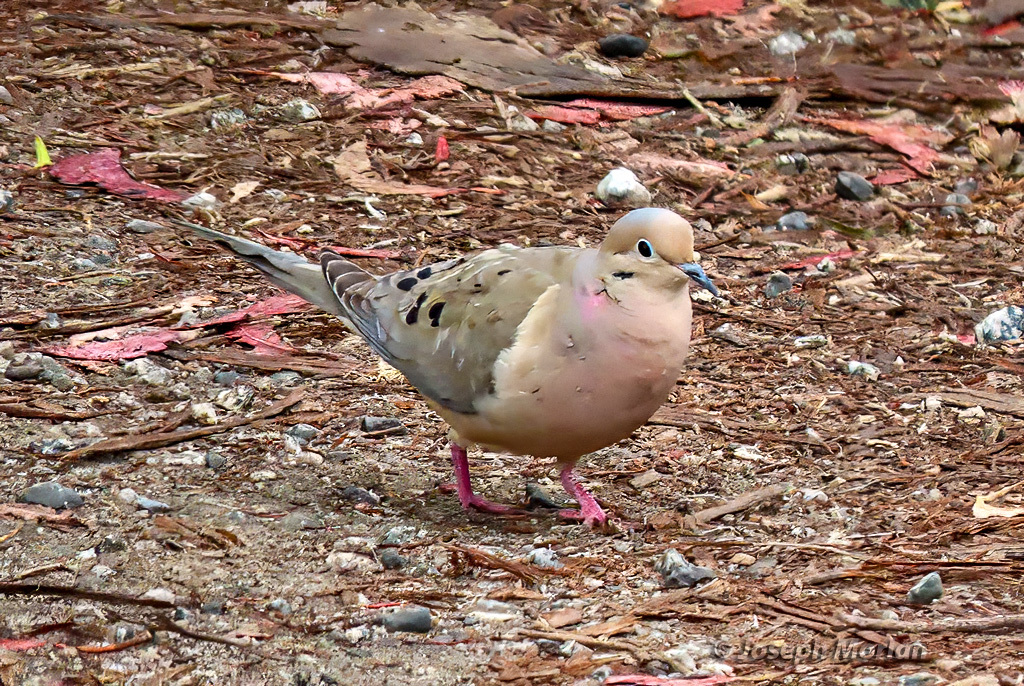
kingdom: Animalia
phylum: Chordata
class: Aves
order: Columbiformes
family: Columbidae
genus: Zenaida
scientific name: Zenaida macroura
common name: Mourning dove
